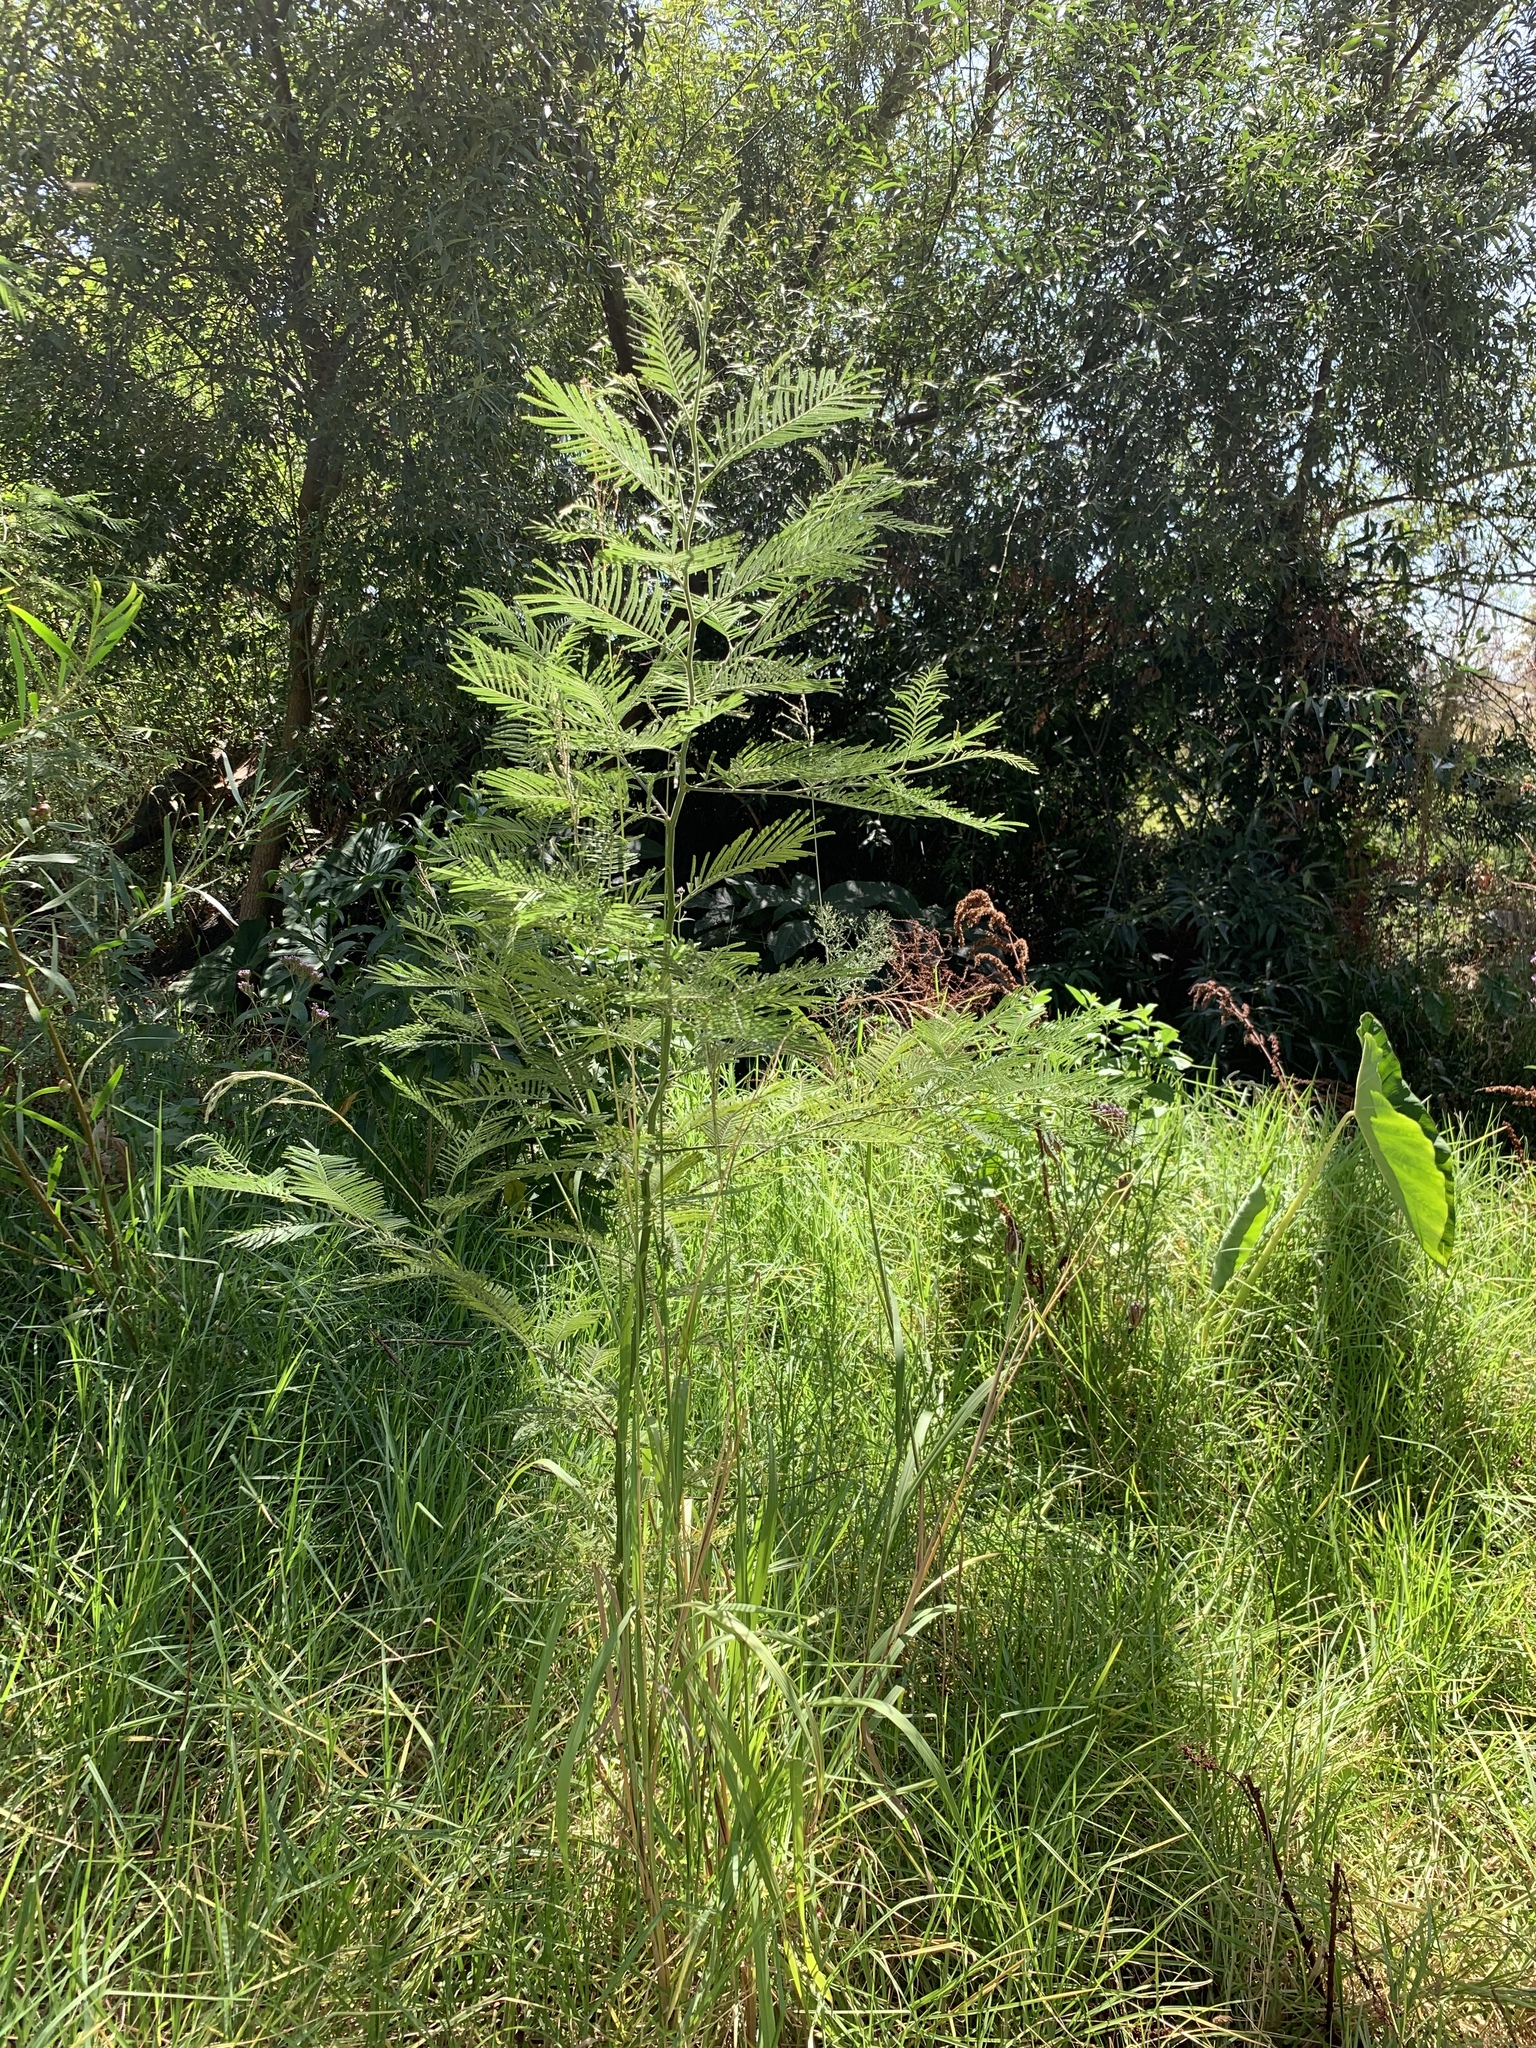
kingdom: Plantae
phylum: Tracheophyta
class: Magnoliopsida
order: Fabales
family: Fabaceae
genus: Acacia
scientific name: Acacia mearnsii
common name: Black wattle
